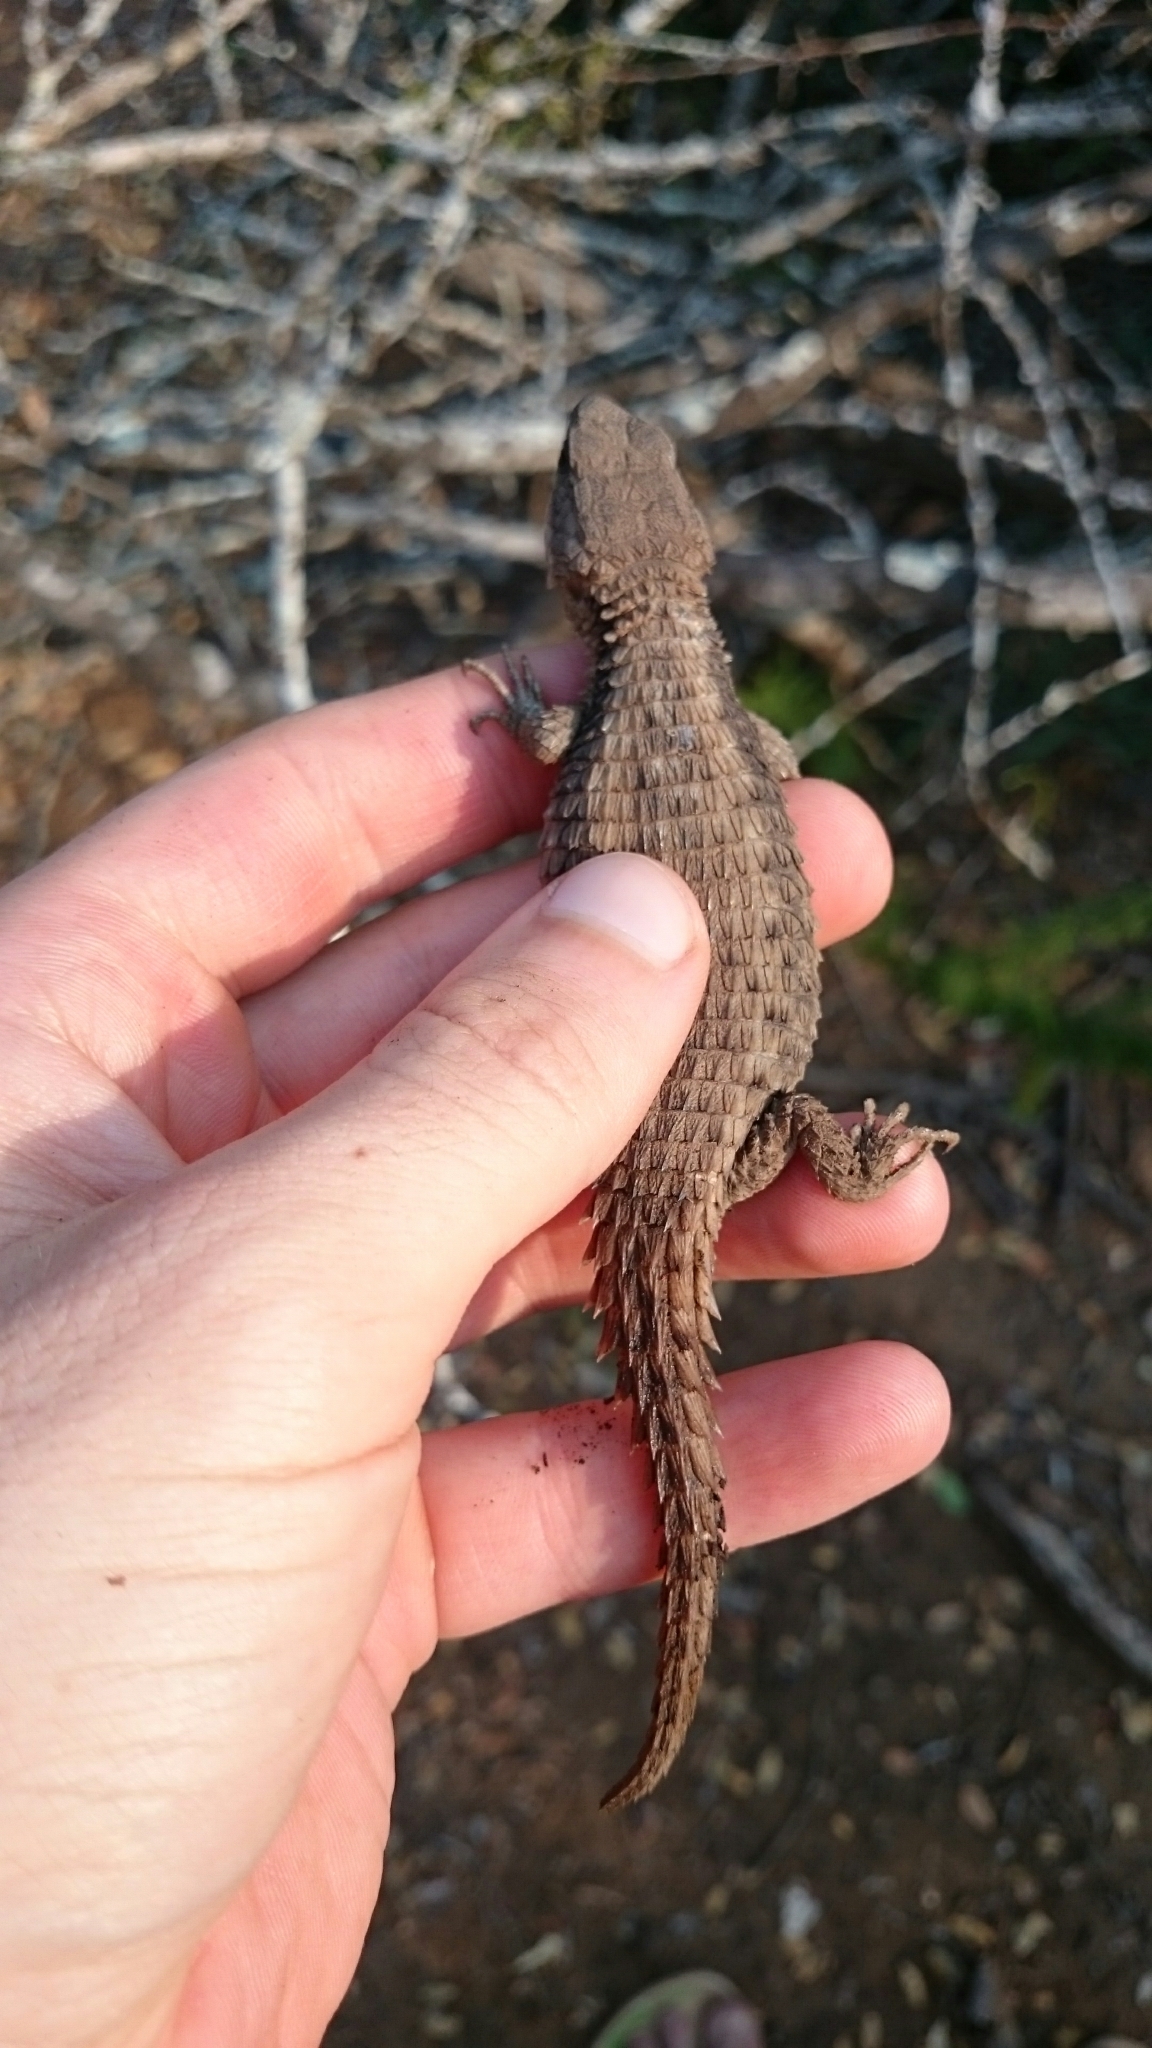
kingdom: Animalia
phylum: Chordata
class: Squamata
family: Cordylidae
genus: Cordylus
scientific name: Cordylus jonesii
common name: Jones' girdled lizard
